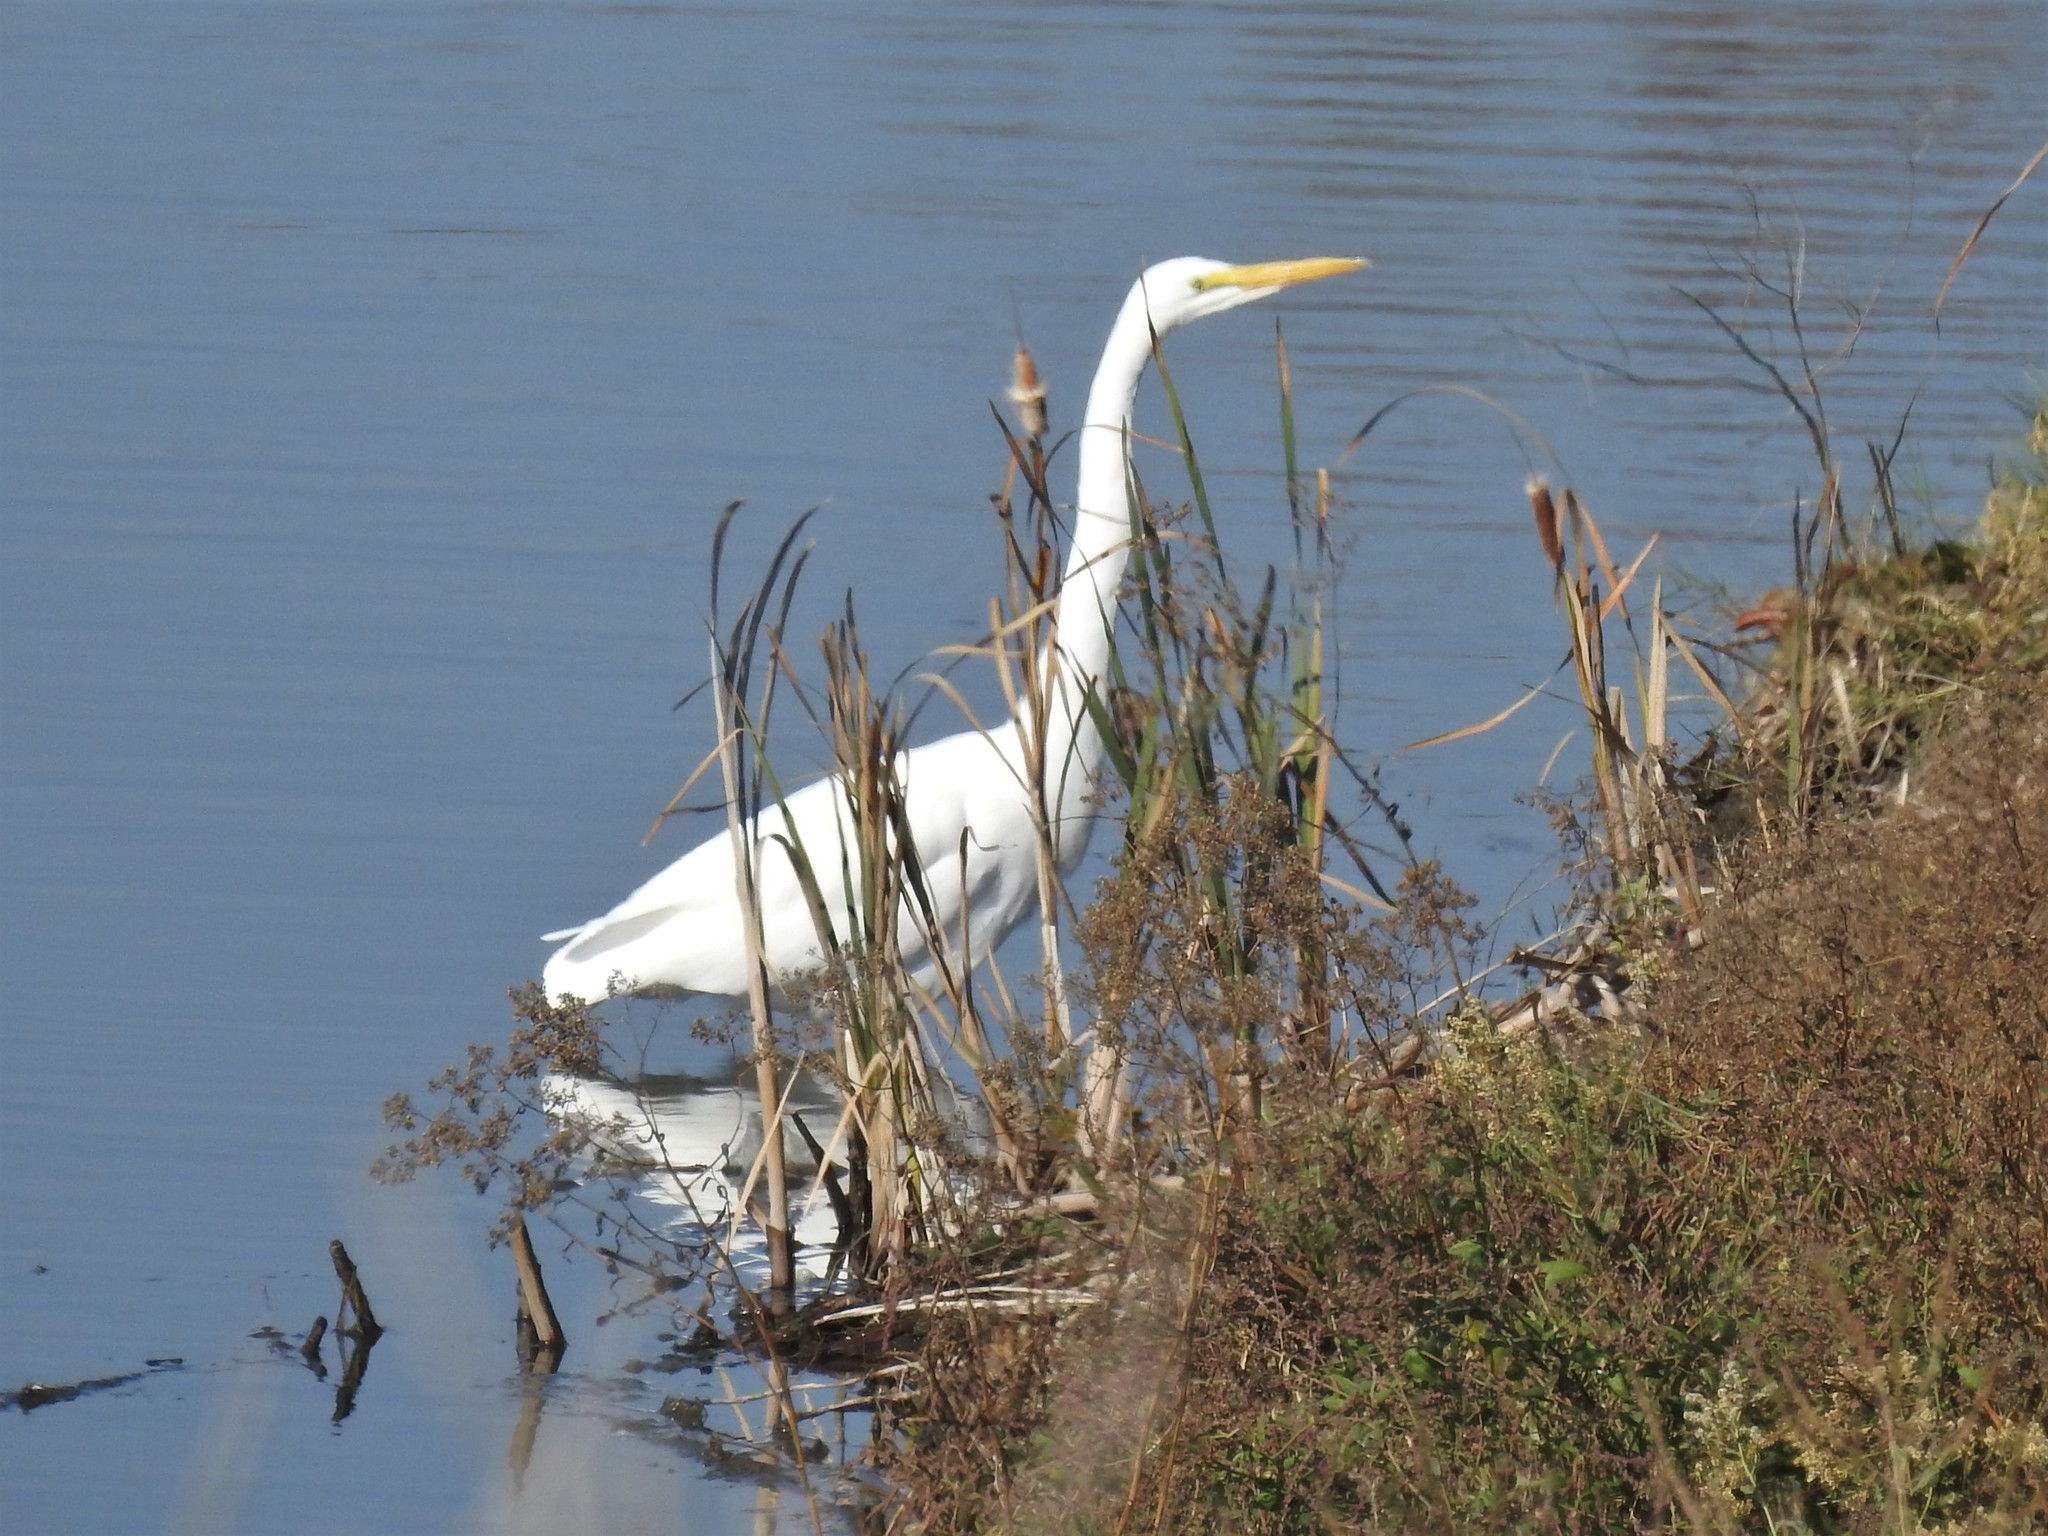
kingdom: Animalia
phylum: Chordata
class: Aves
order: Pelecaniformes
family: Ardeidae
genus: Ardea
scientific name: Ardea alba
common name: Great egret
